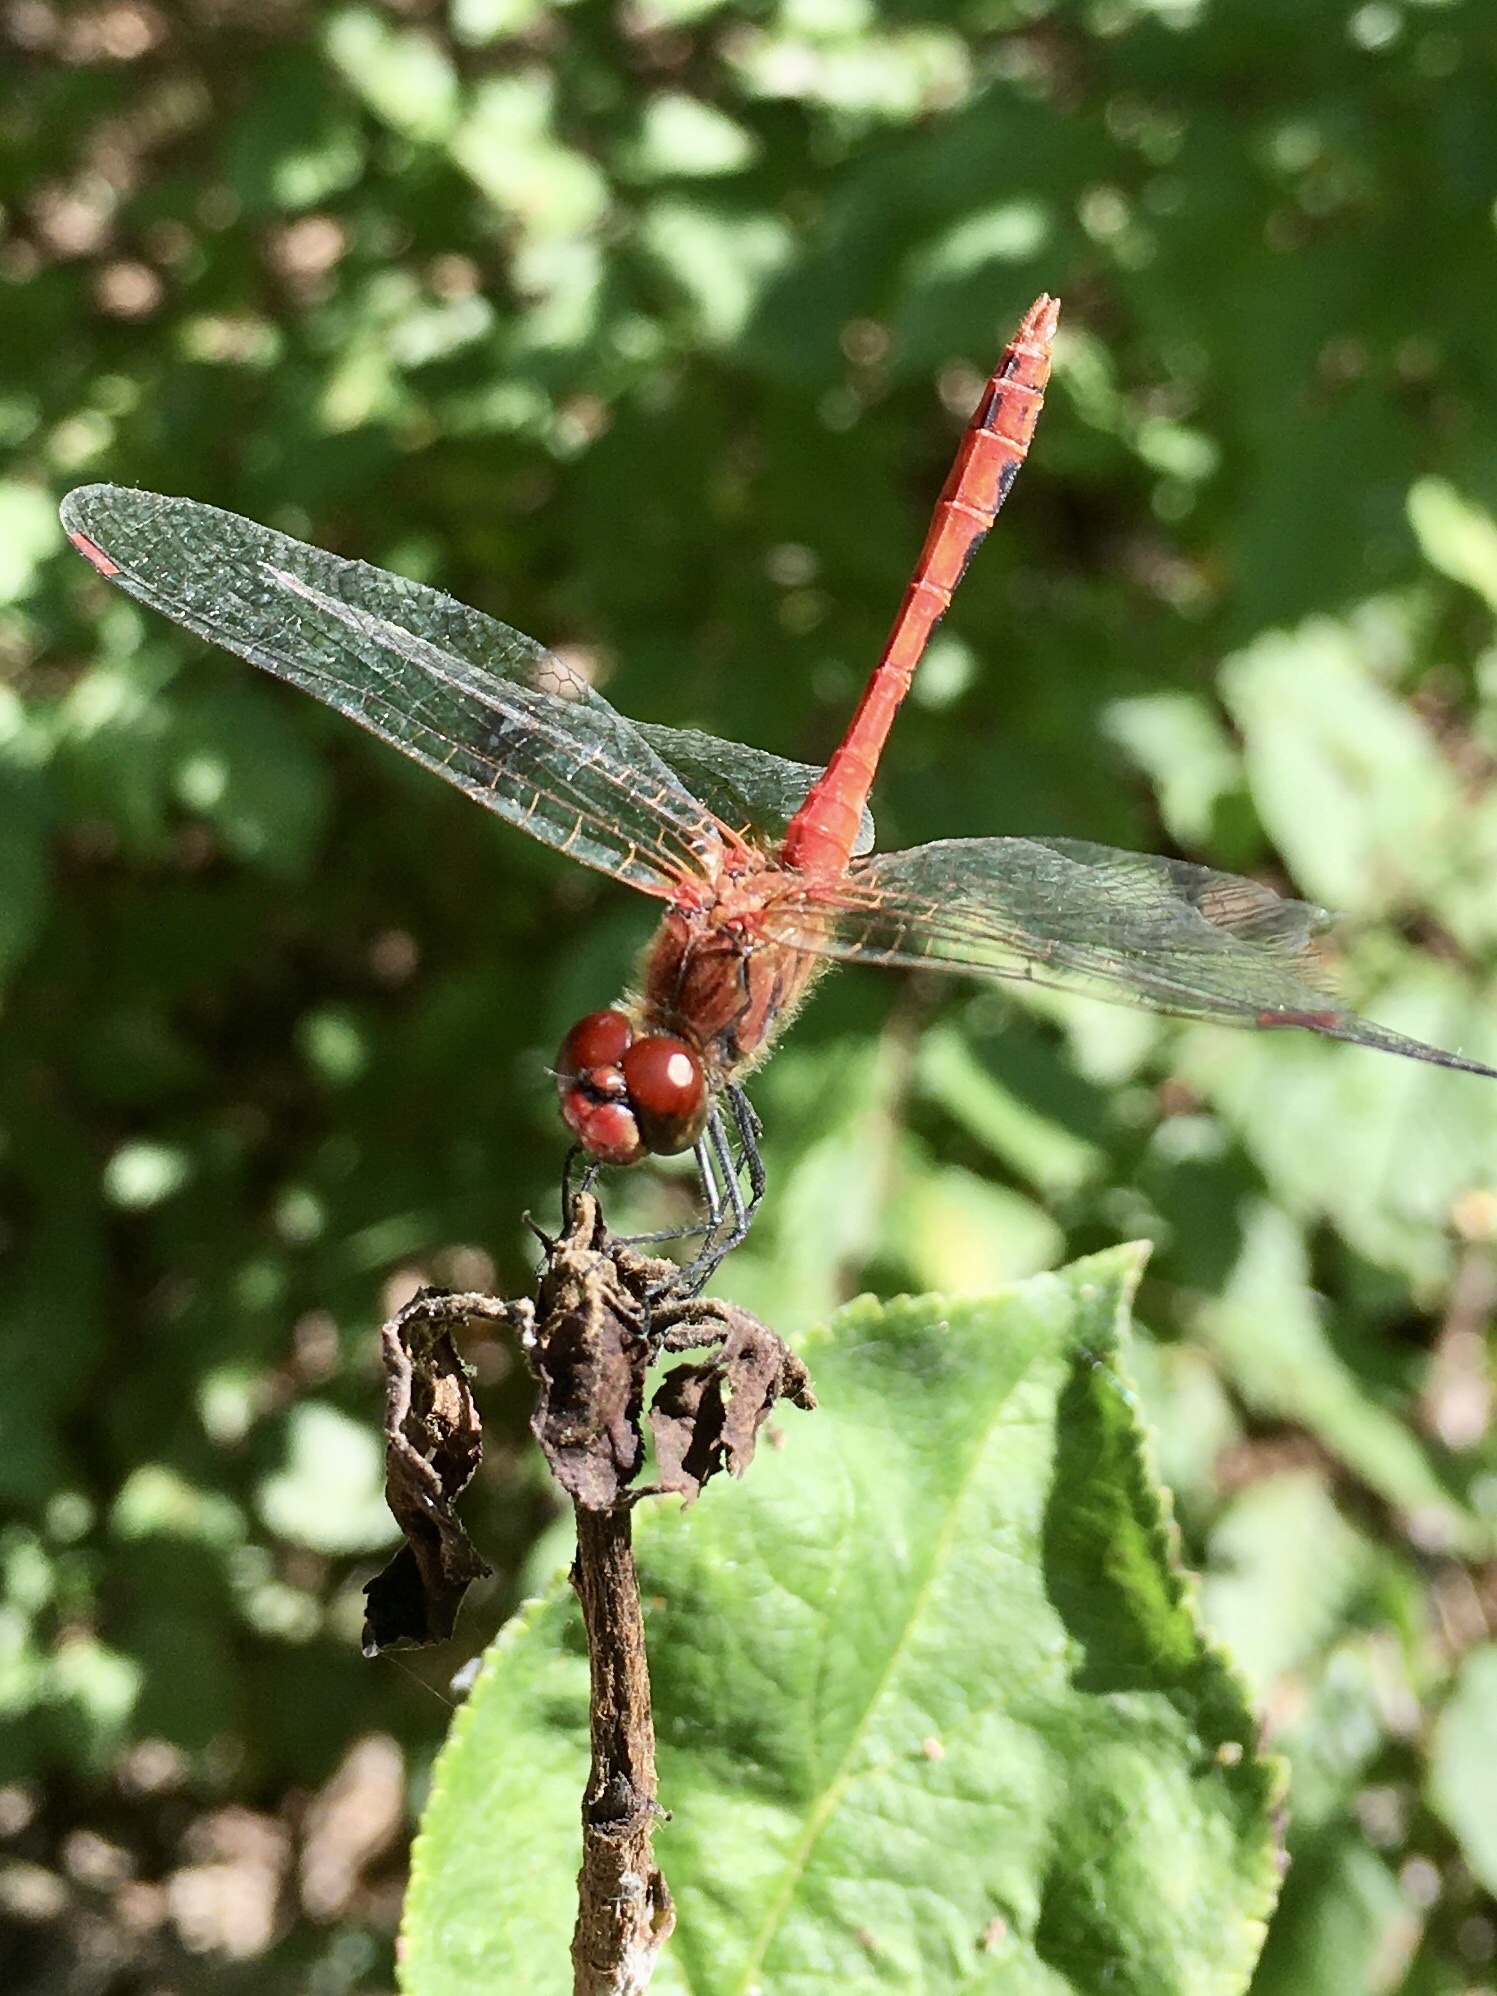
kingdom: Animalia
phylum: Arthropoda
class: Insecta
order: Odonata
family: Libellulidae
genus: Sympetrum
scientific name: Sympetrum sanguineum
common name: Ruddy darter
